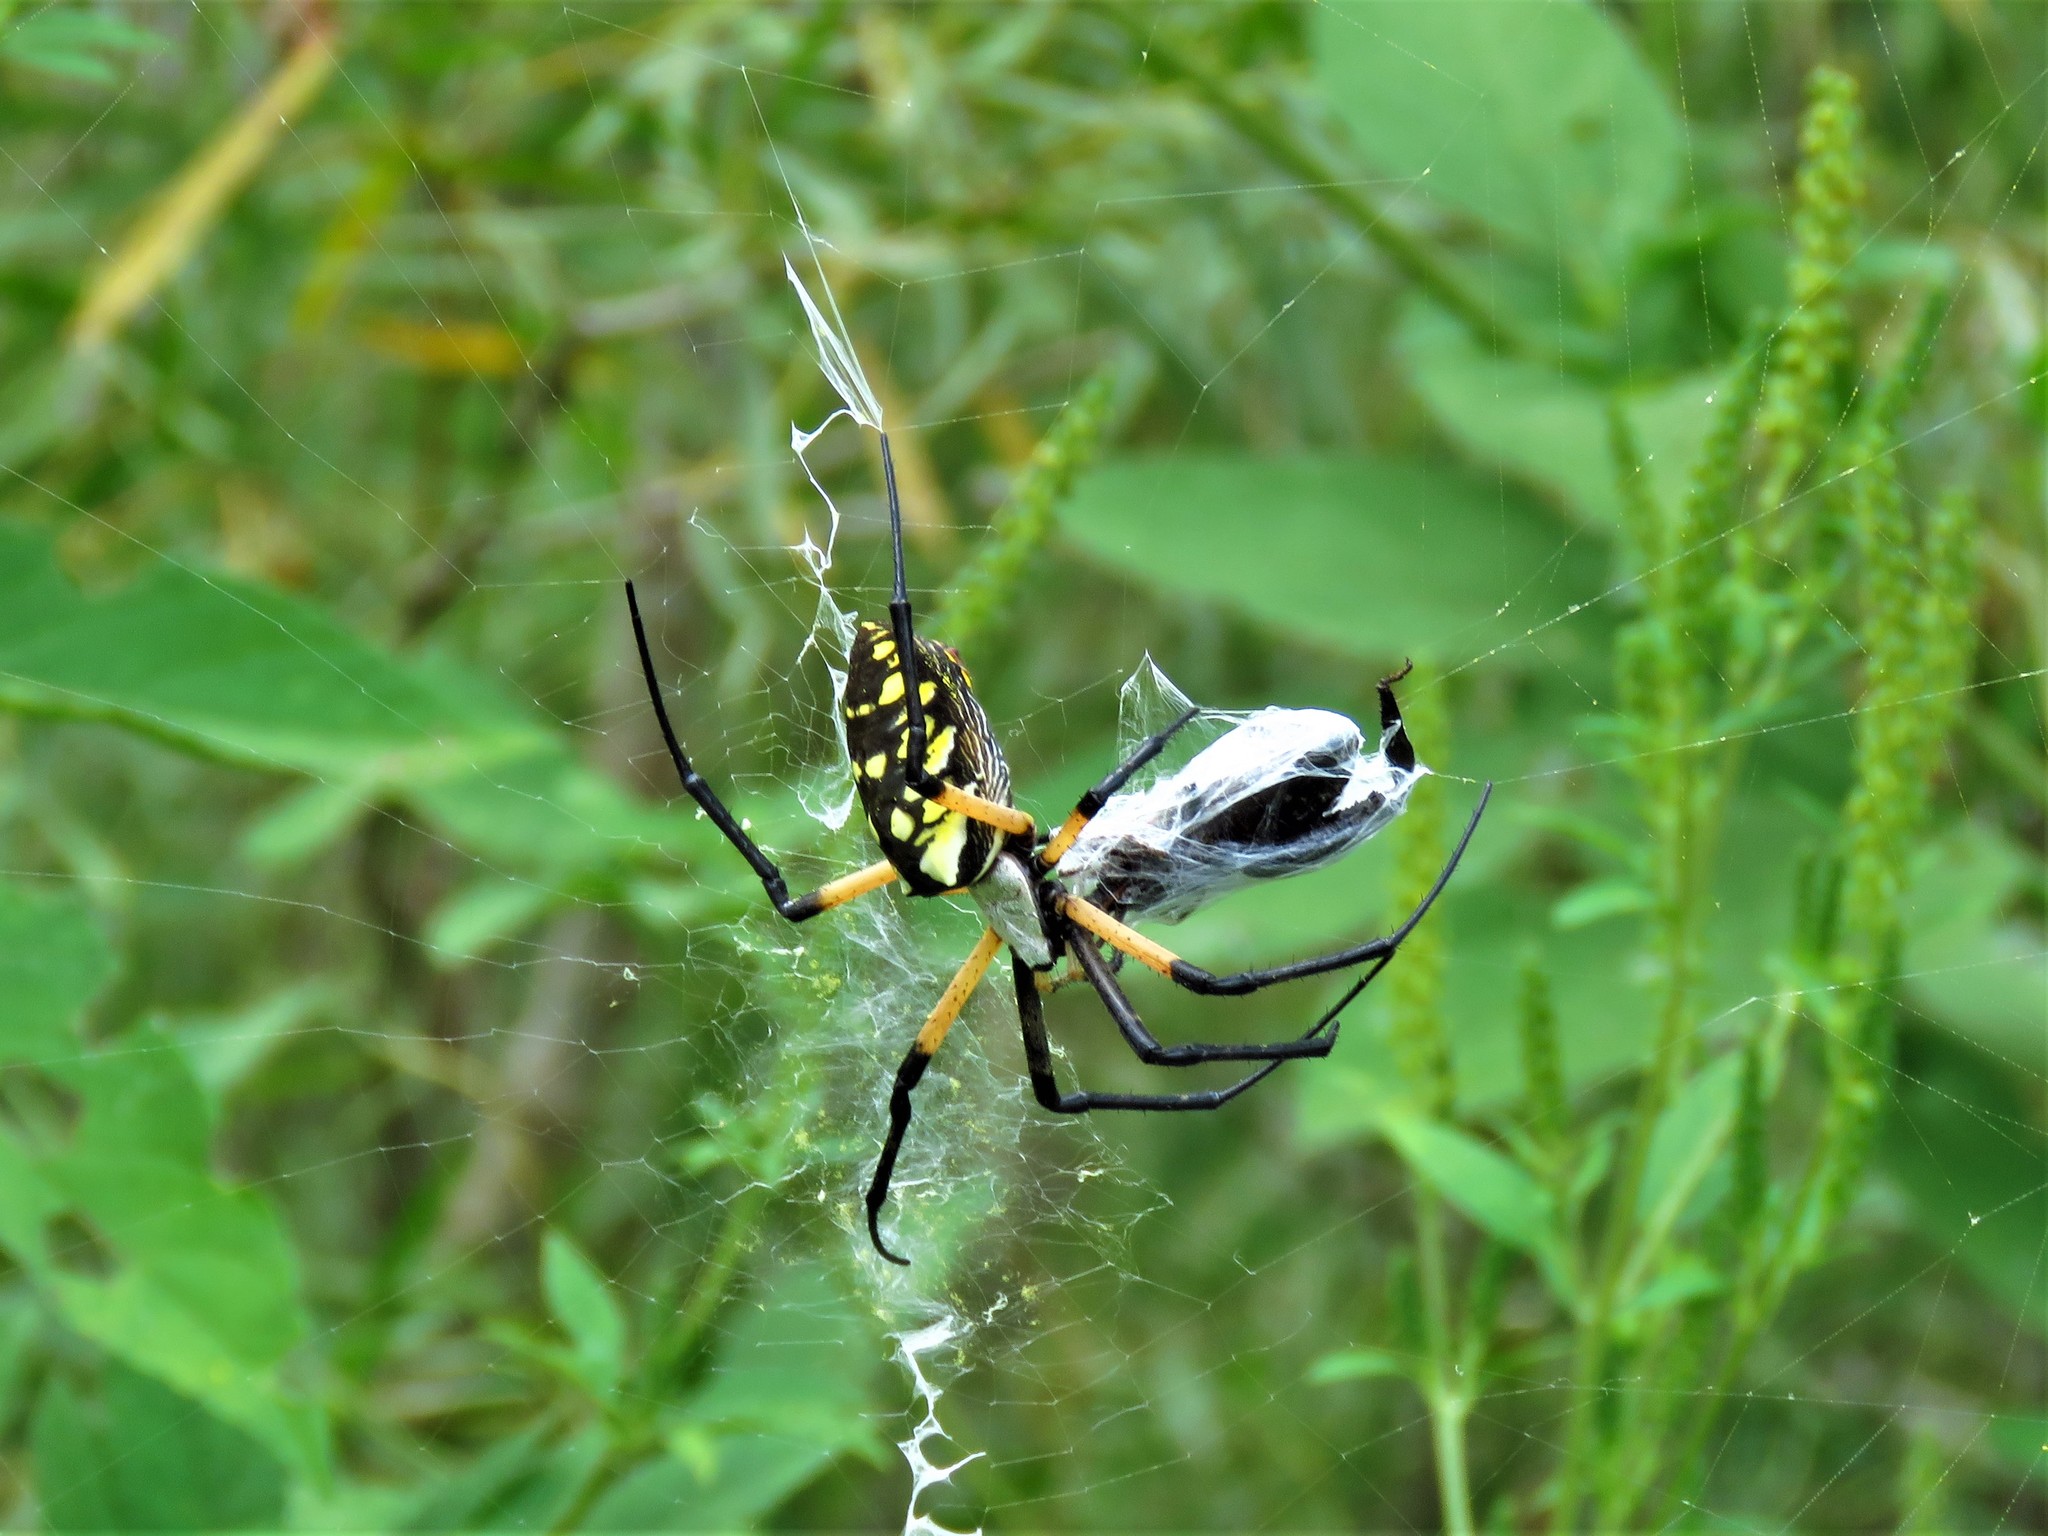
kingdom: Animalia
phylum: Arthropoda
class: Arachnida
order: Araneae
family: Araneidae
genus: Argiope
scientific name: Argiope aurantia
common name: Orb weavers
